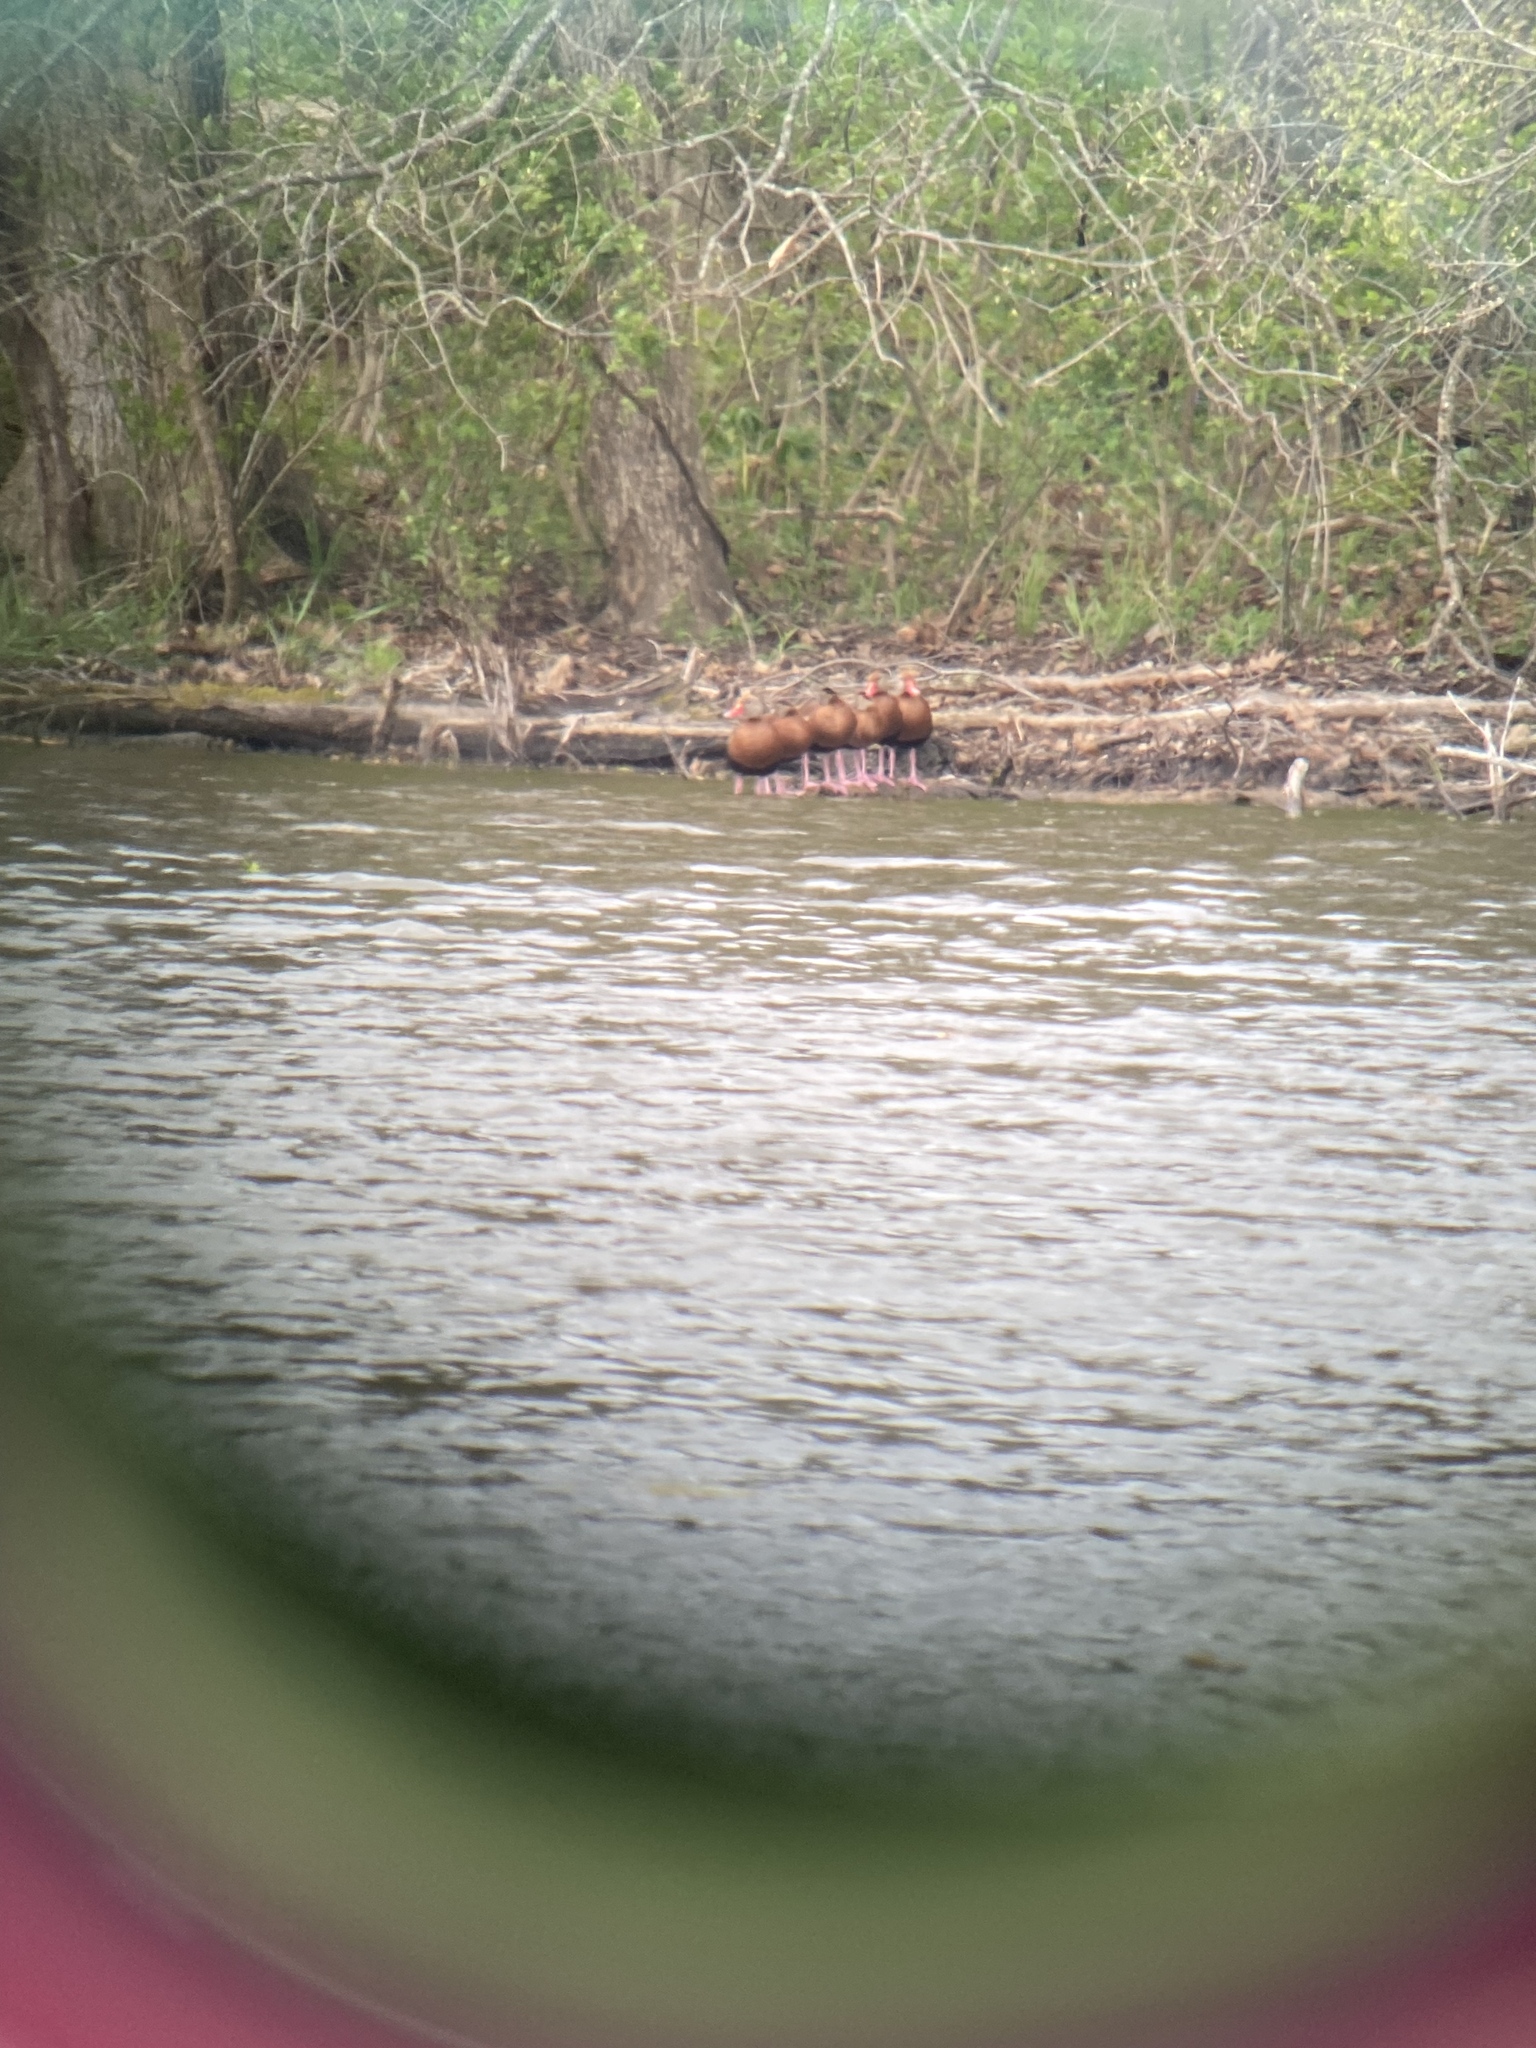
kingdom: Animalia
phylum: Chordata
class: Aves
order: Anseriformes
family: Anatidae
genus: Dendrocygna
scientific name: Dendrocygna autumnalis
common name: Black-bellied whistling duck
